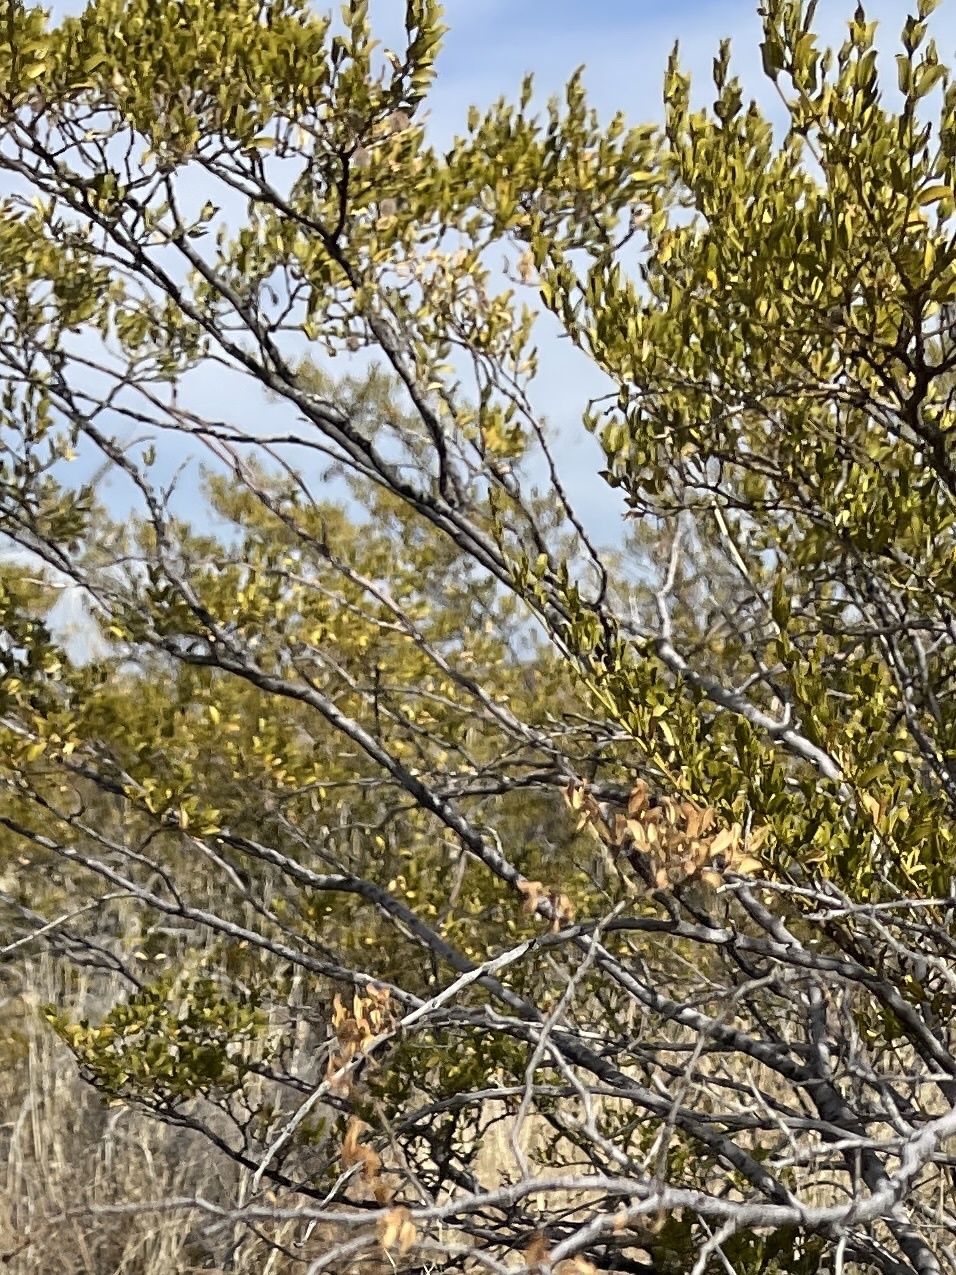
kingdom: Plantae
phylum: Tracheophyta
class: Magnoliopsida
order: Zygophyllales
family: Zygophyllaceae
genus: Larrea
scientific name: Larrea tridentata
